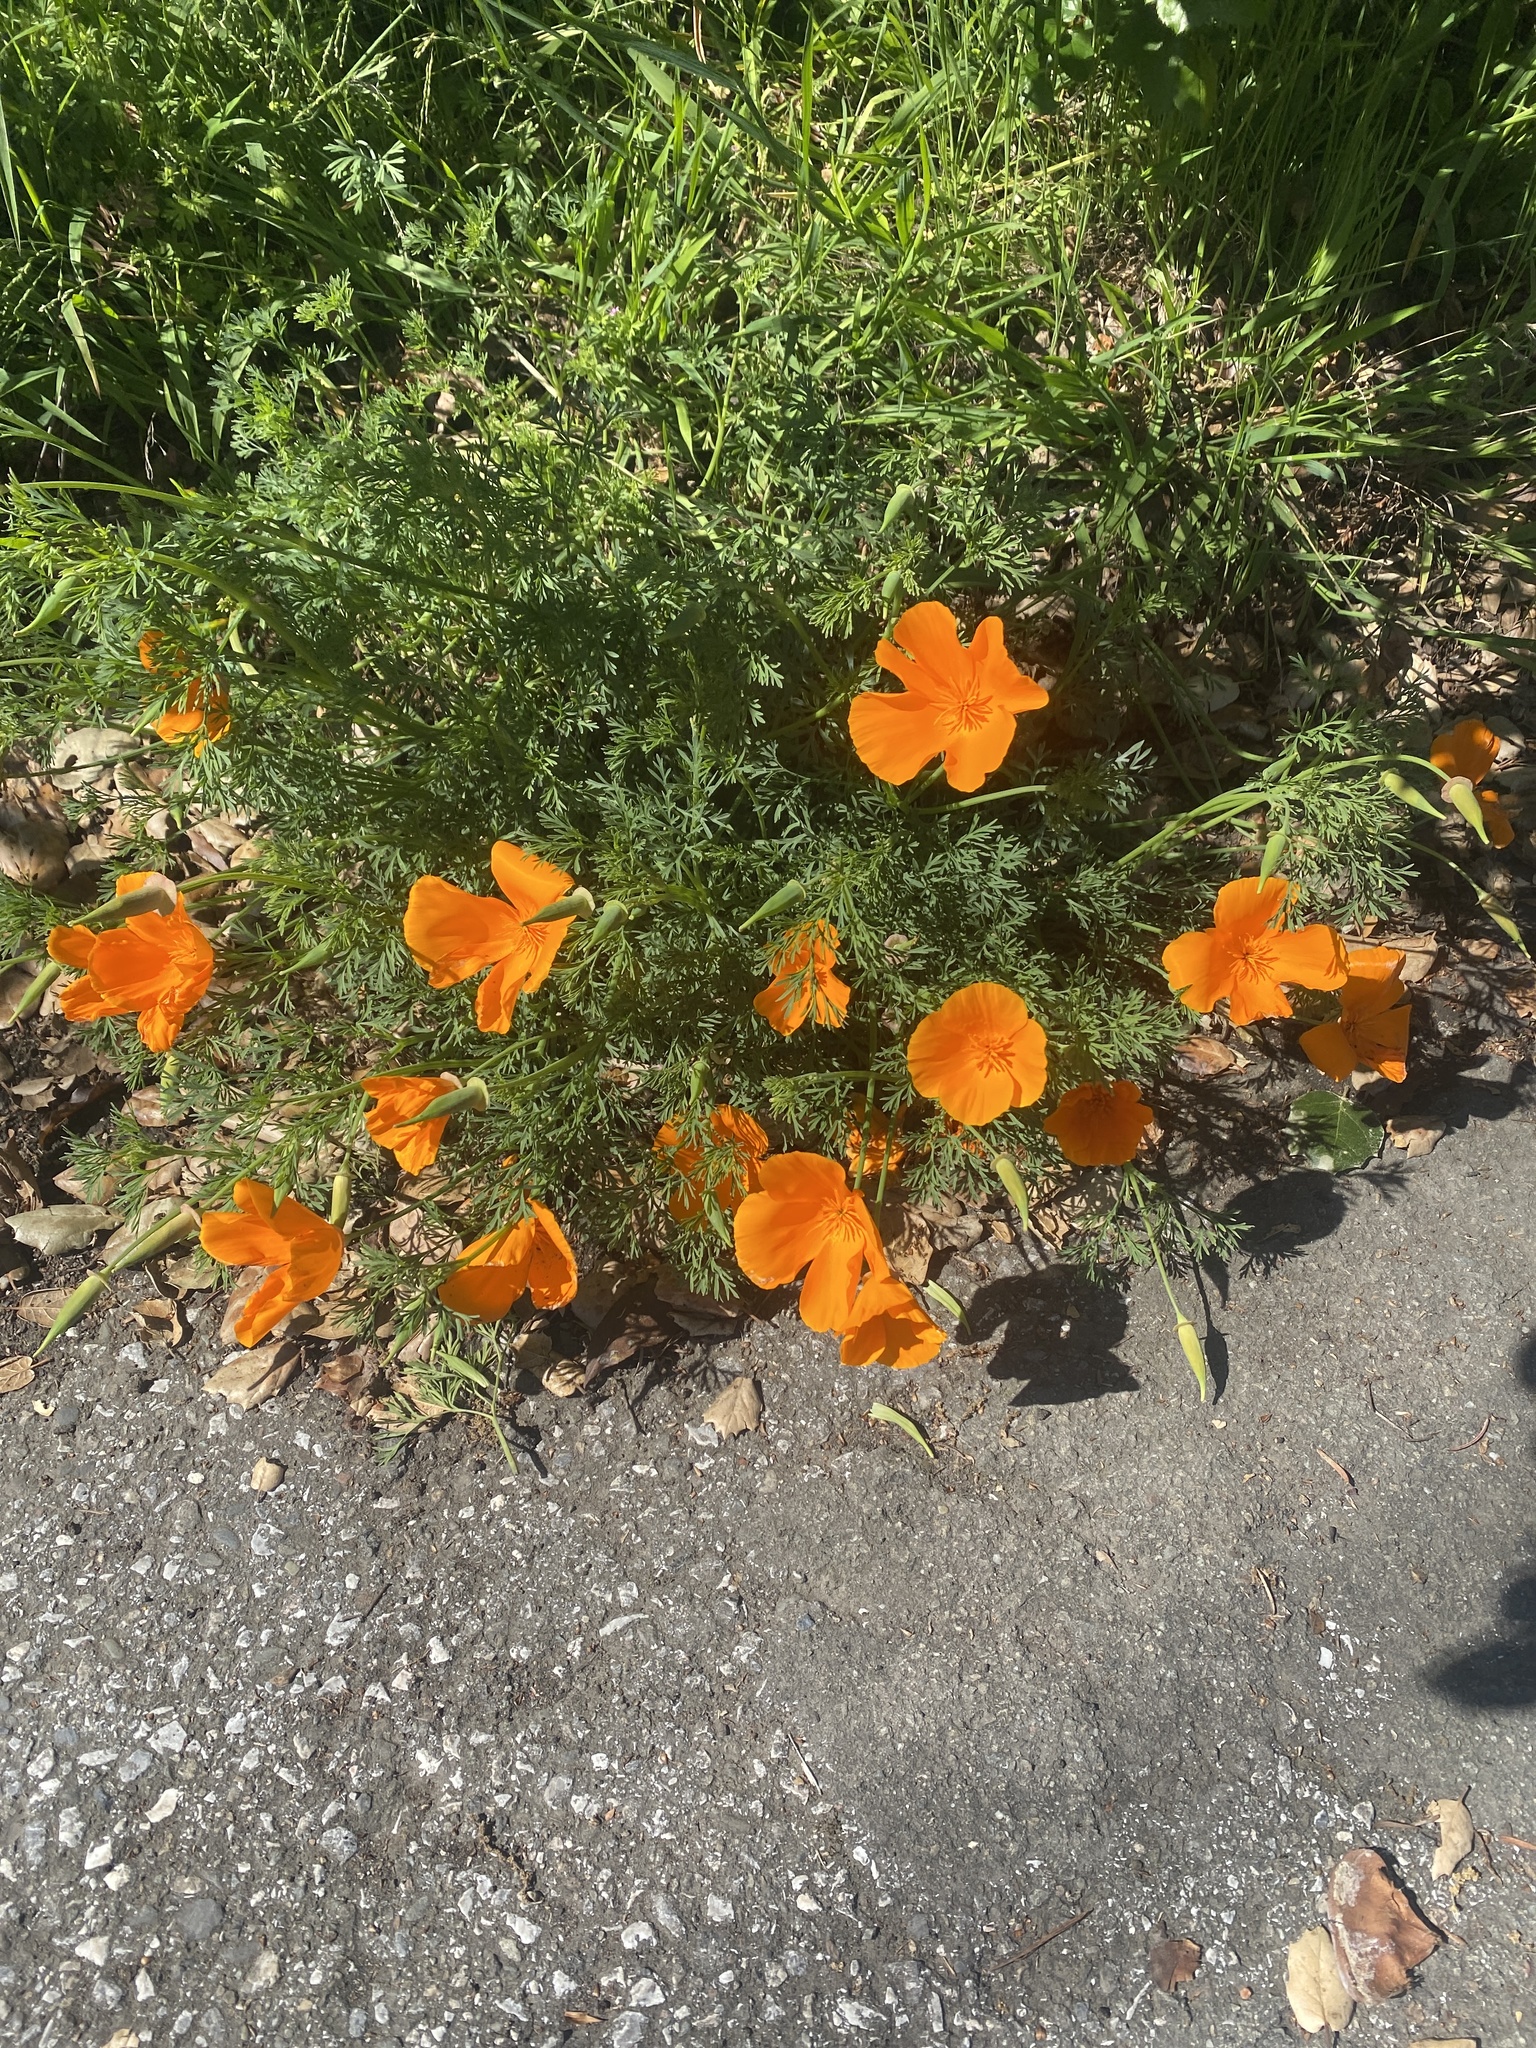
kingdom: Plantae
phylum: Tracheophyta
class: Magnoliopsida
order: Ranunculales
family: Papaveraceae
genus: Eschscholzia
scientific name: Eschscholzia californica
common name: California poppy
